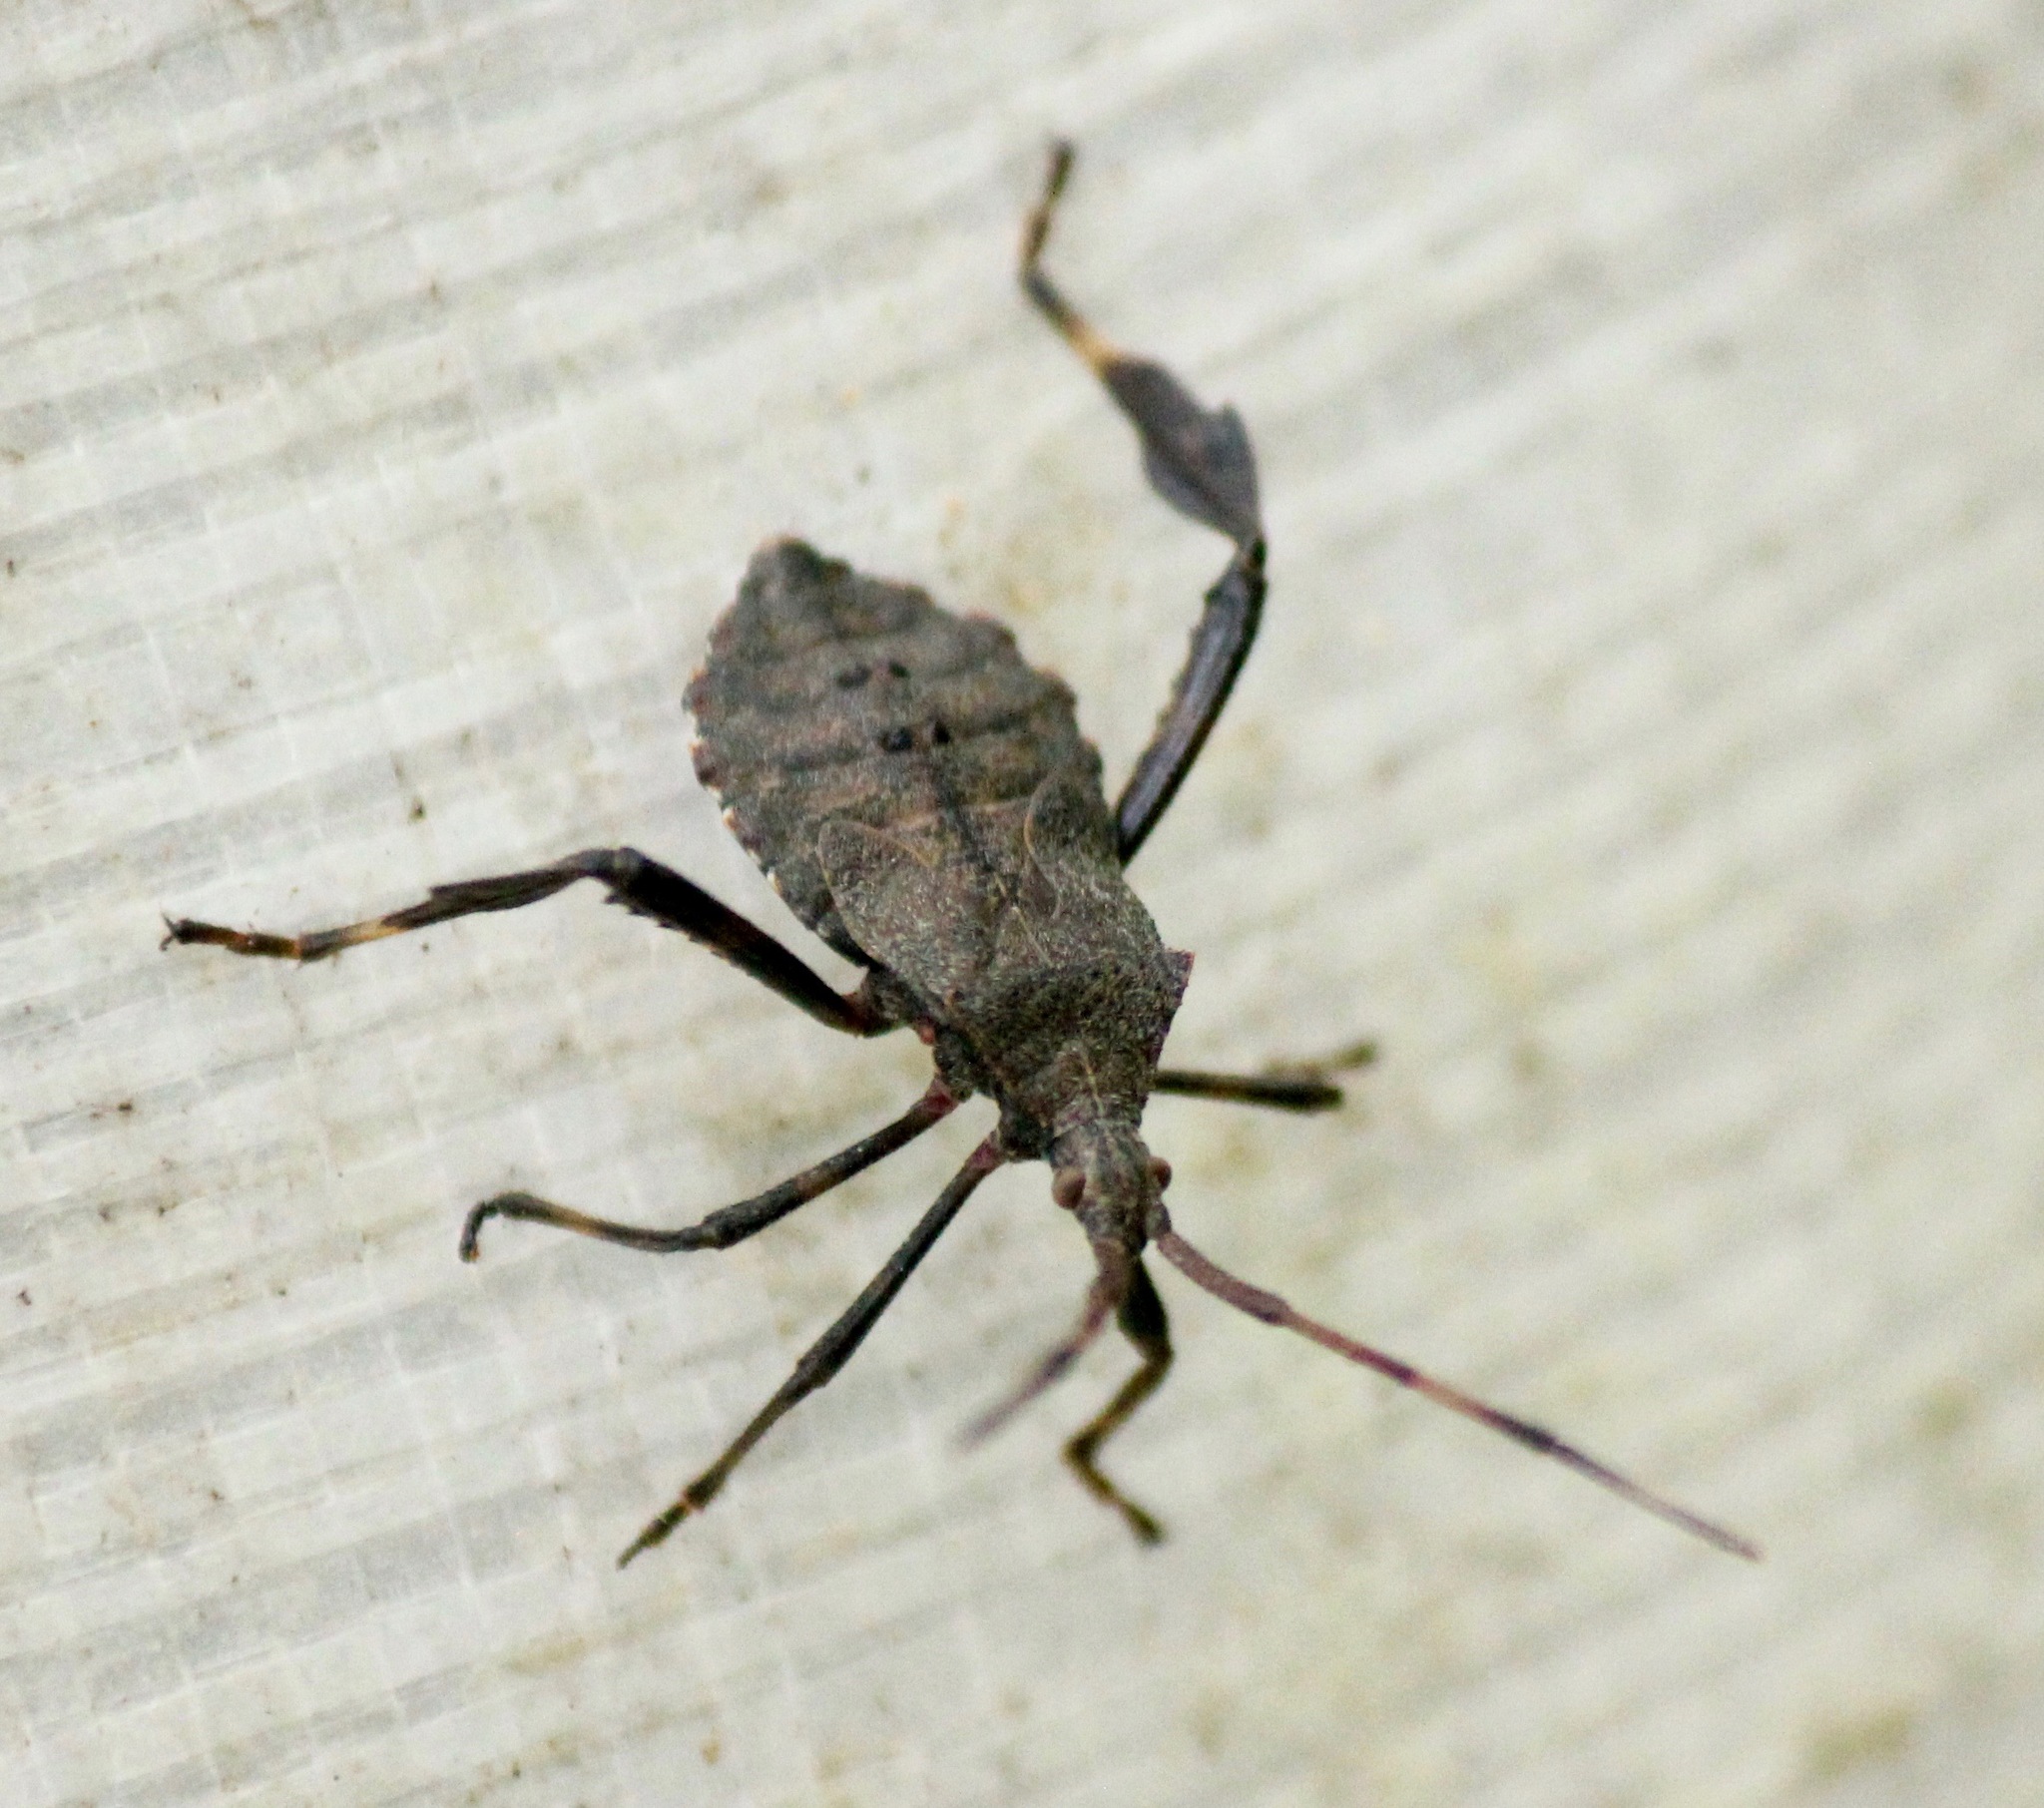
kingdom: Animalia
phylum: Arthropoda
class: Insecta
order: Hemiptera
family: Coreidae
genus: Acanthocephala
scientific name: Acanthocephala terminalis
